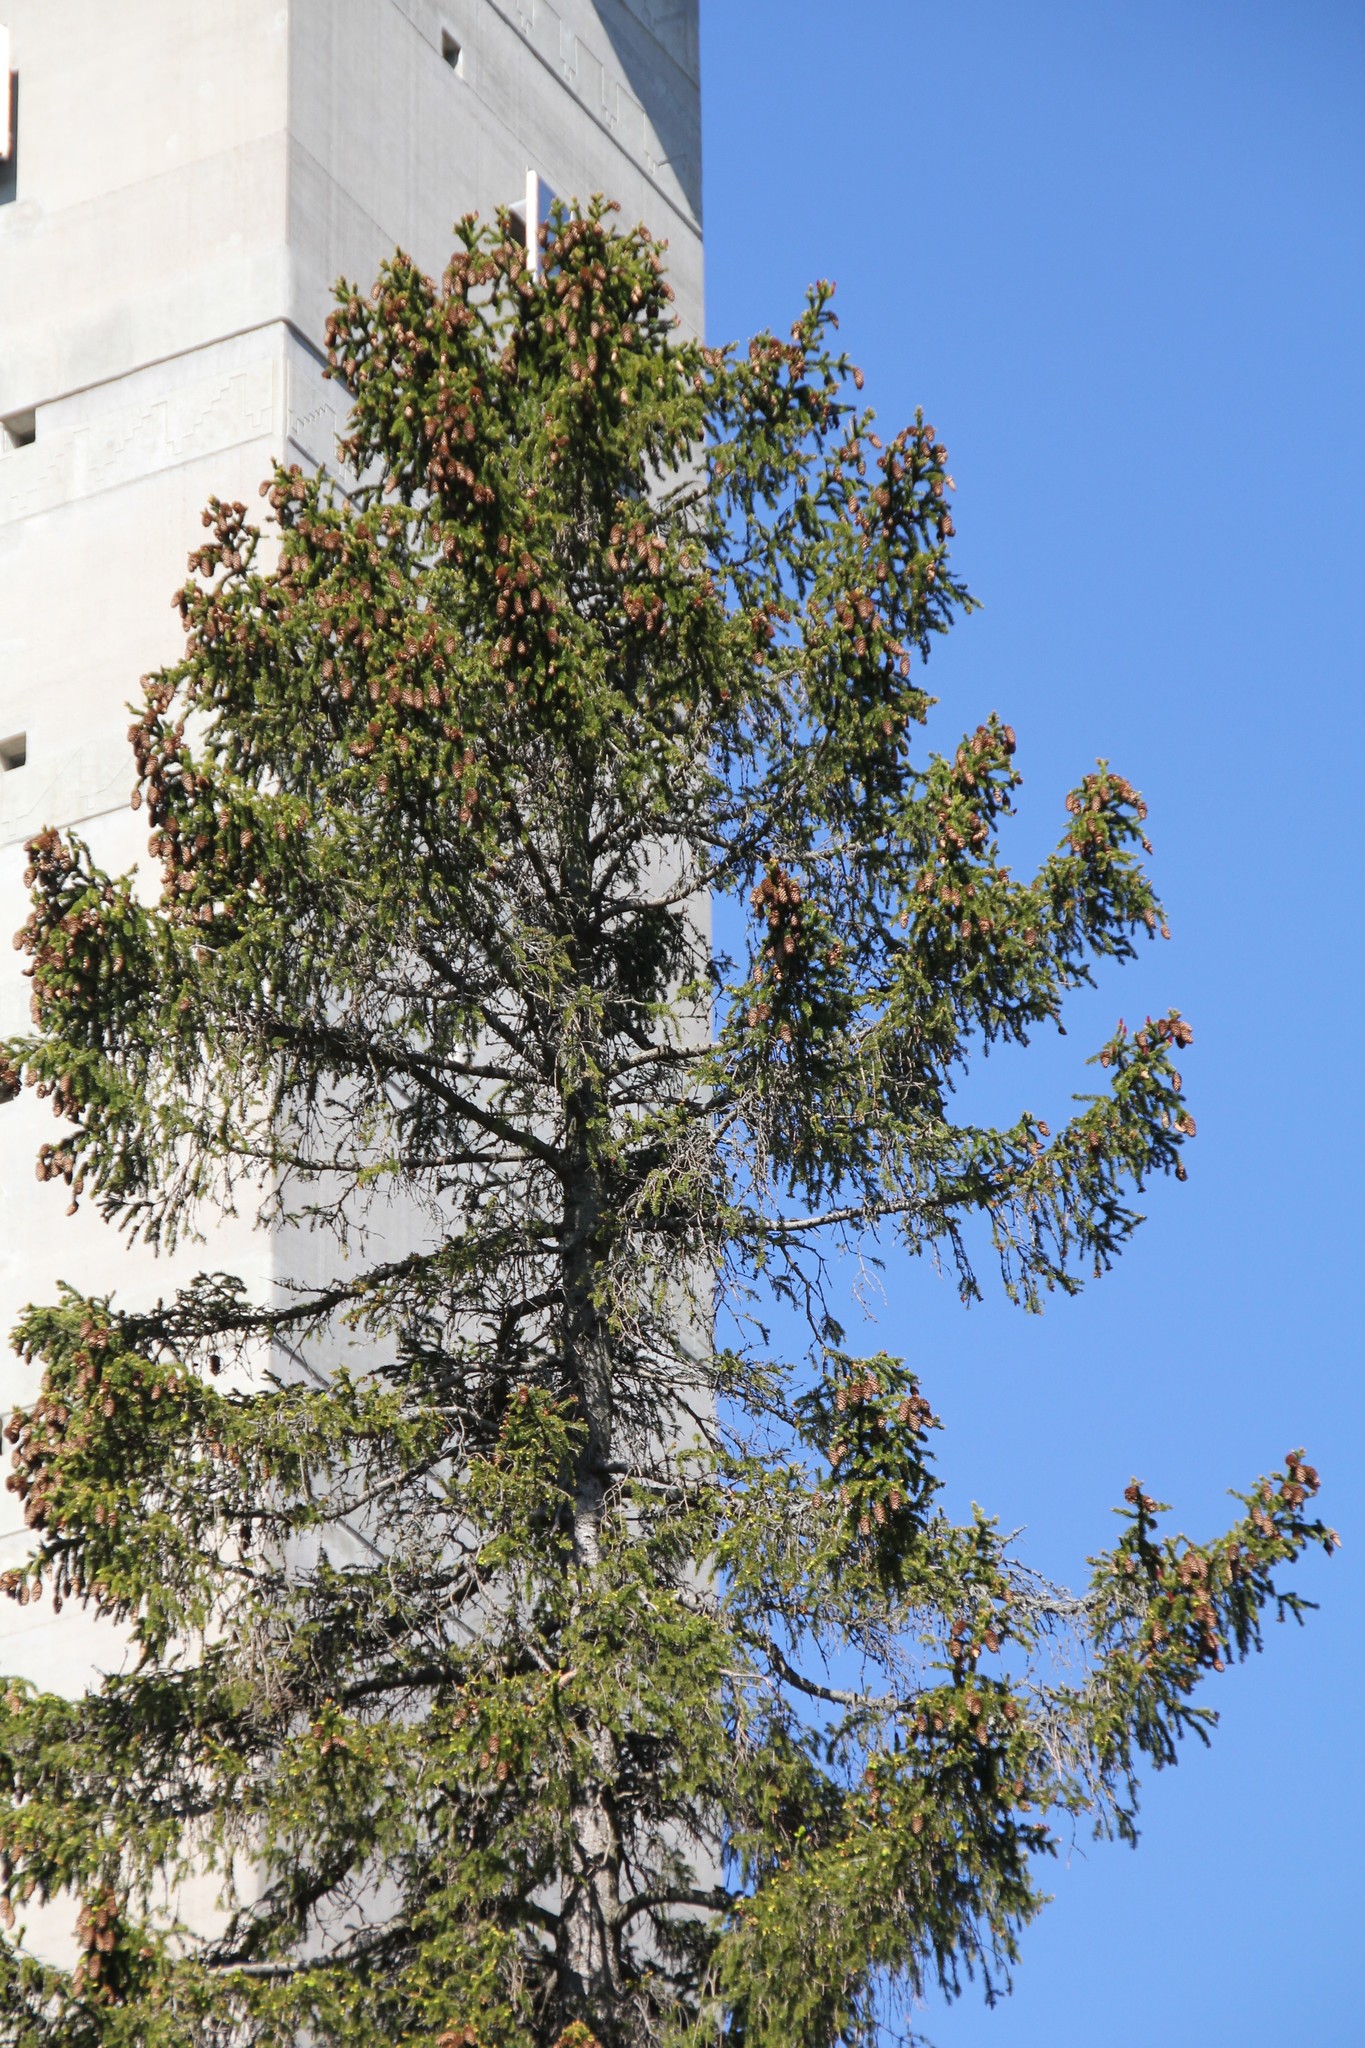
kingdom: Plantae
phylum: Tracheophyta
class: Pinopsida
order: Pinales
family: Pinaceae
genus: Picea
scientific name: Picea abies
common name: Norway spruce
